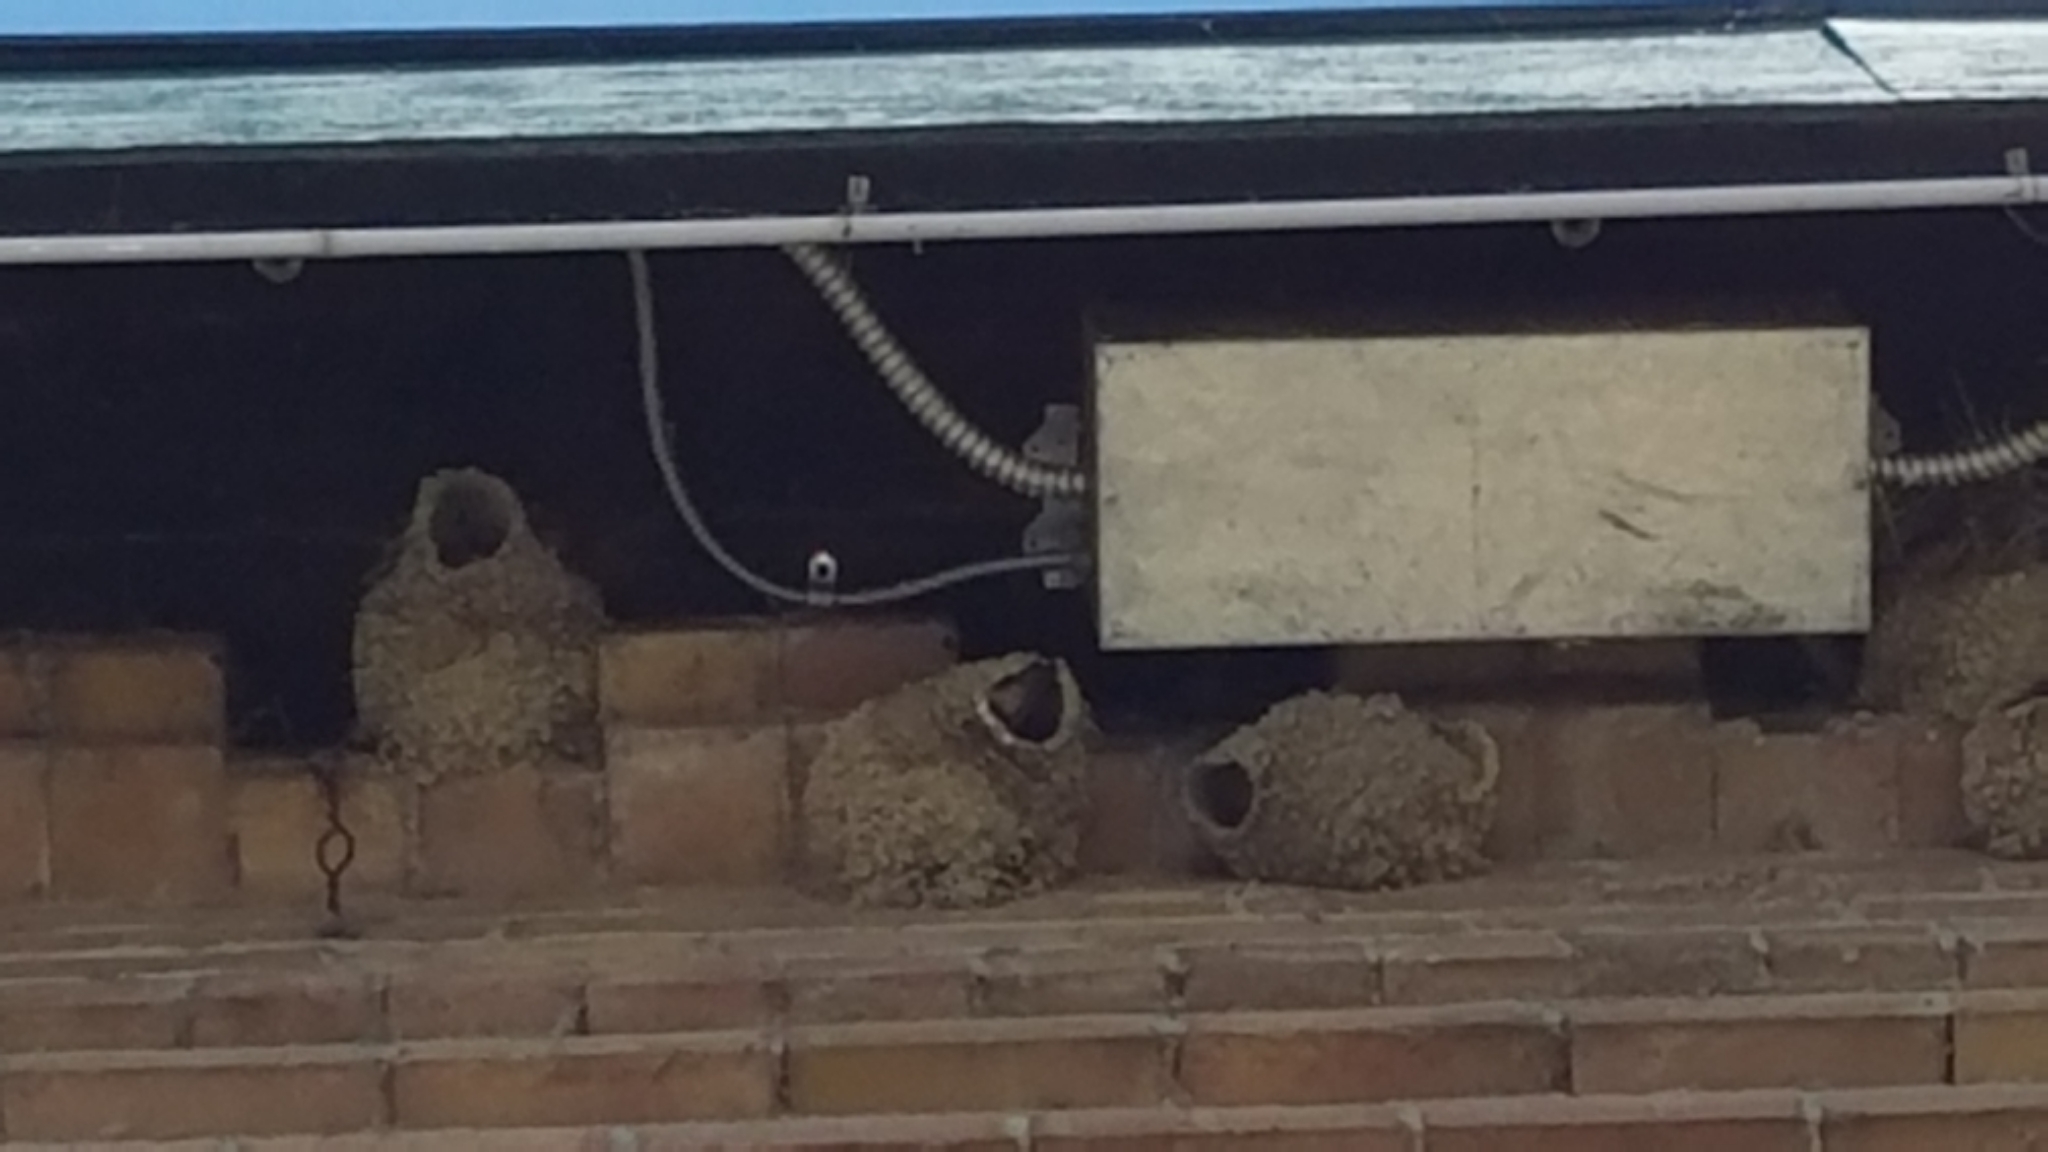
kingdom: Animalia
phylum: Chordata
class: Aves
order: Passeriformes
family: Hirundinidae
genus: Petrochelidon
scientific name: Petrochelidon pyrrhonota
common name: American cliff swallow
